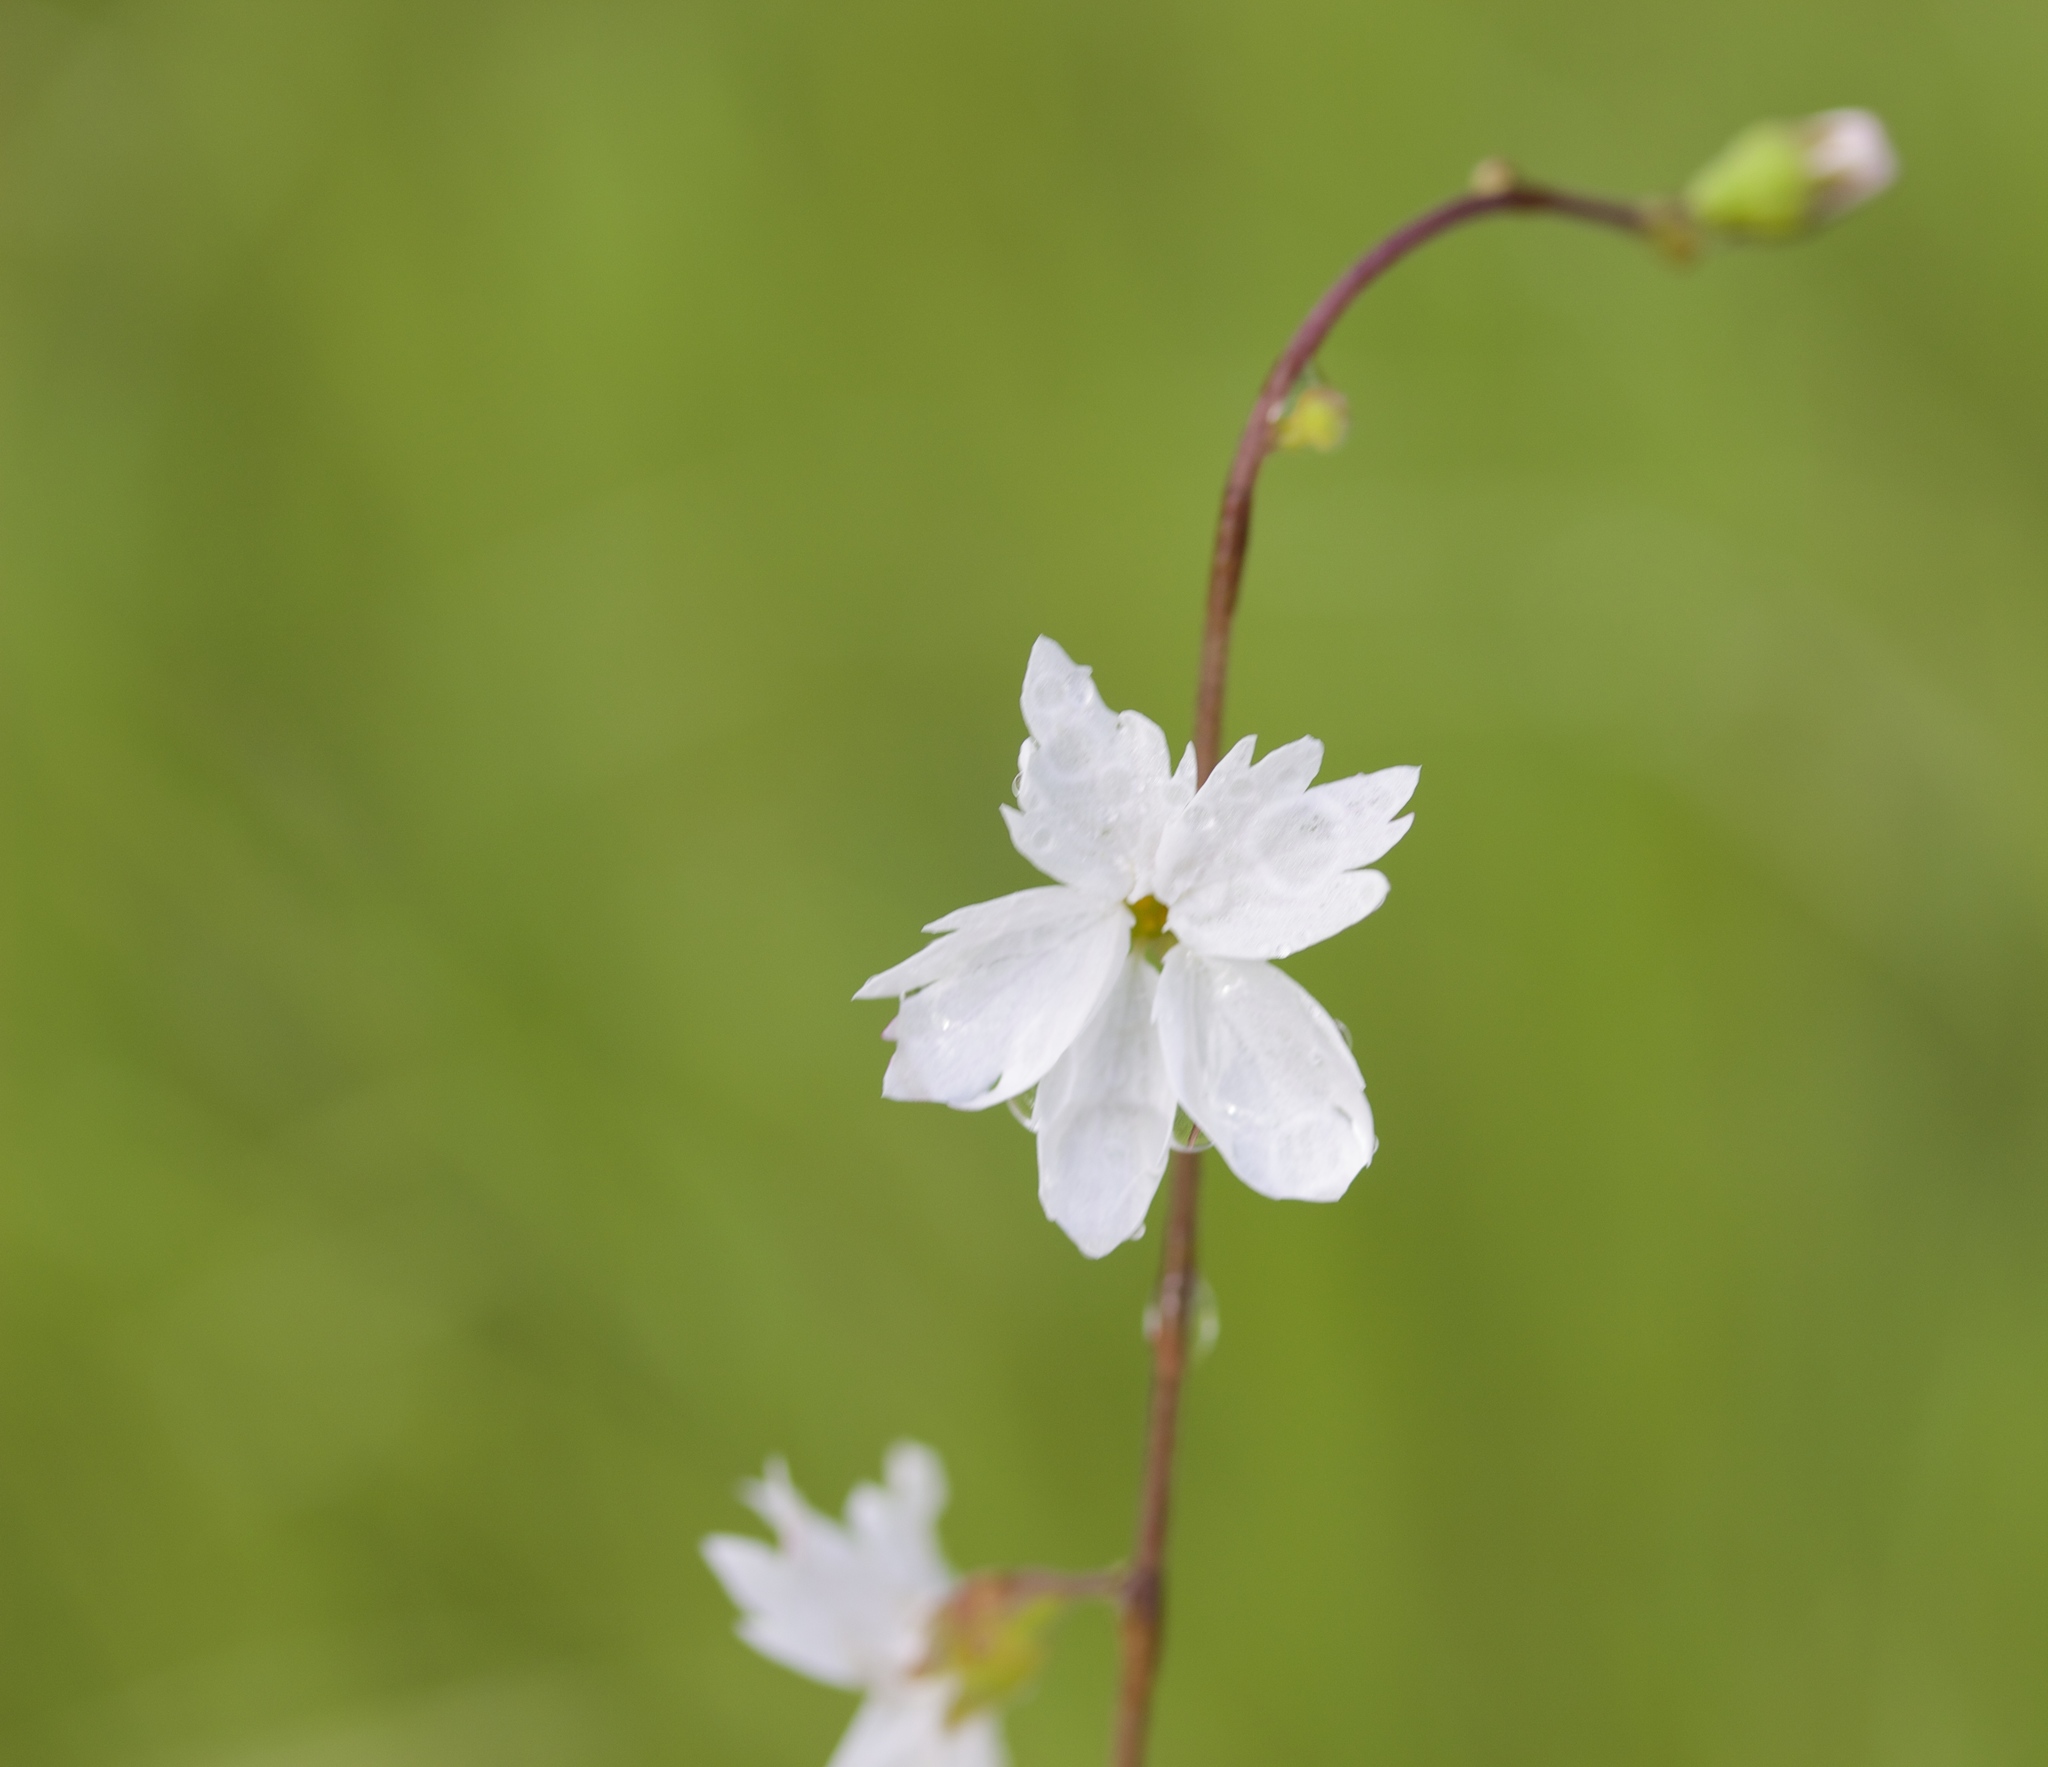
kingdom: Plantae
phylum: Tracheophyta
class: Magnoliopsida
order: Saxifragales
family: Saxifragaceae
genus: Lithophragma
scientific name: Lithophragma affine
